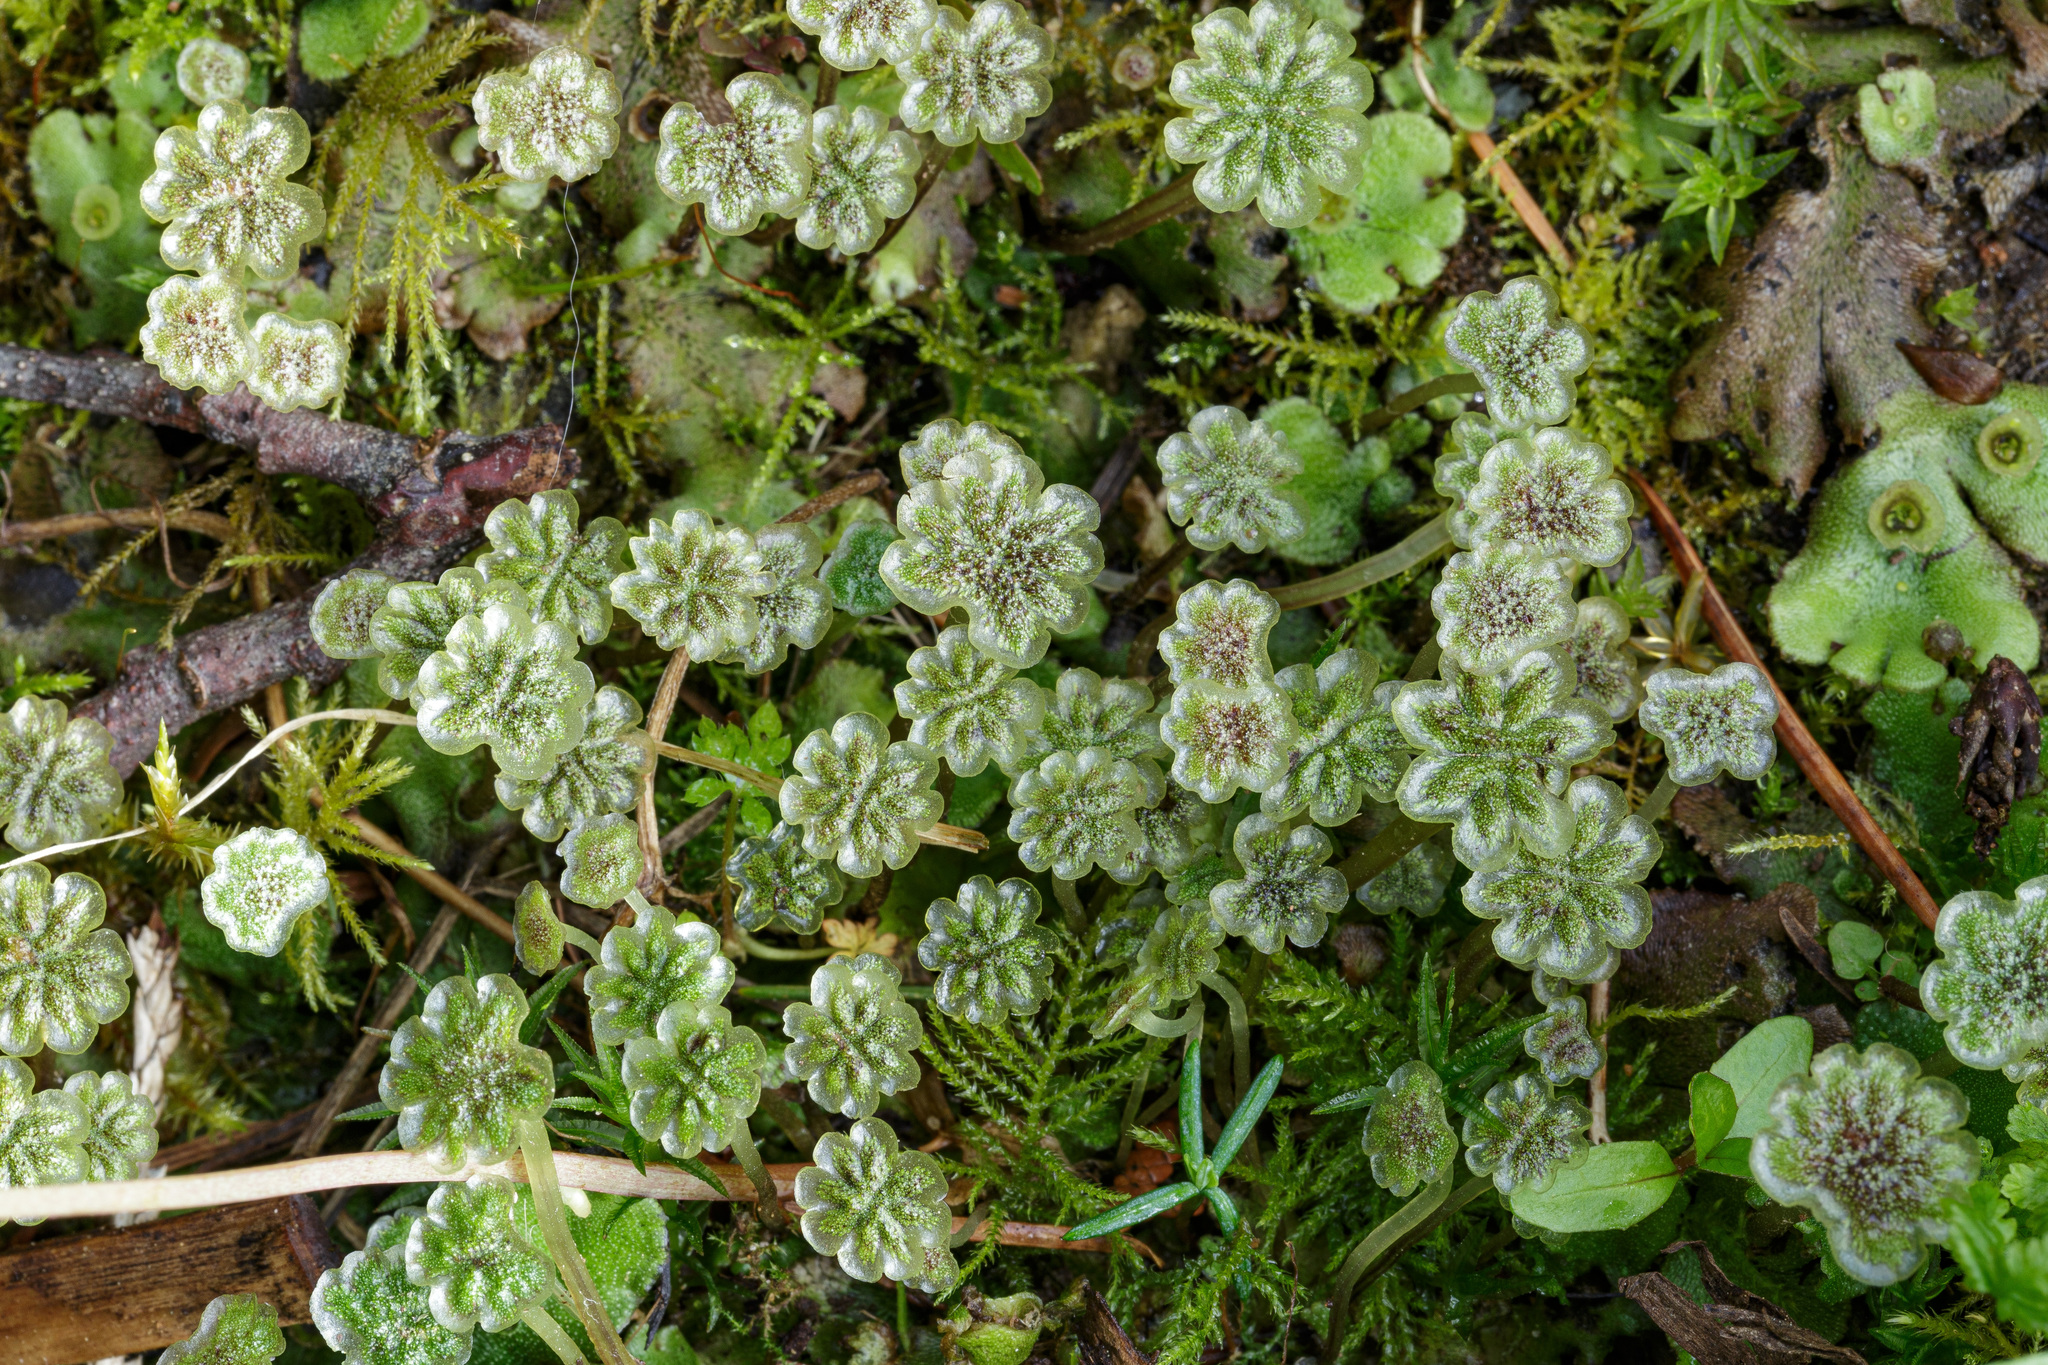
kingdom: Plantae
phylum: Marchantiophyta
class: Marchantiopsida
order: Marchantiales
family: Marchantiaceae
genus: Marchantia
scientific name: Marchantia polymorpha
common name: Common liverwort
